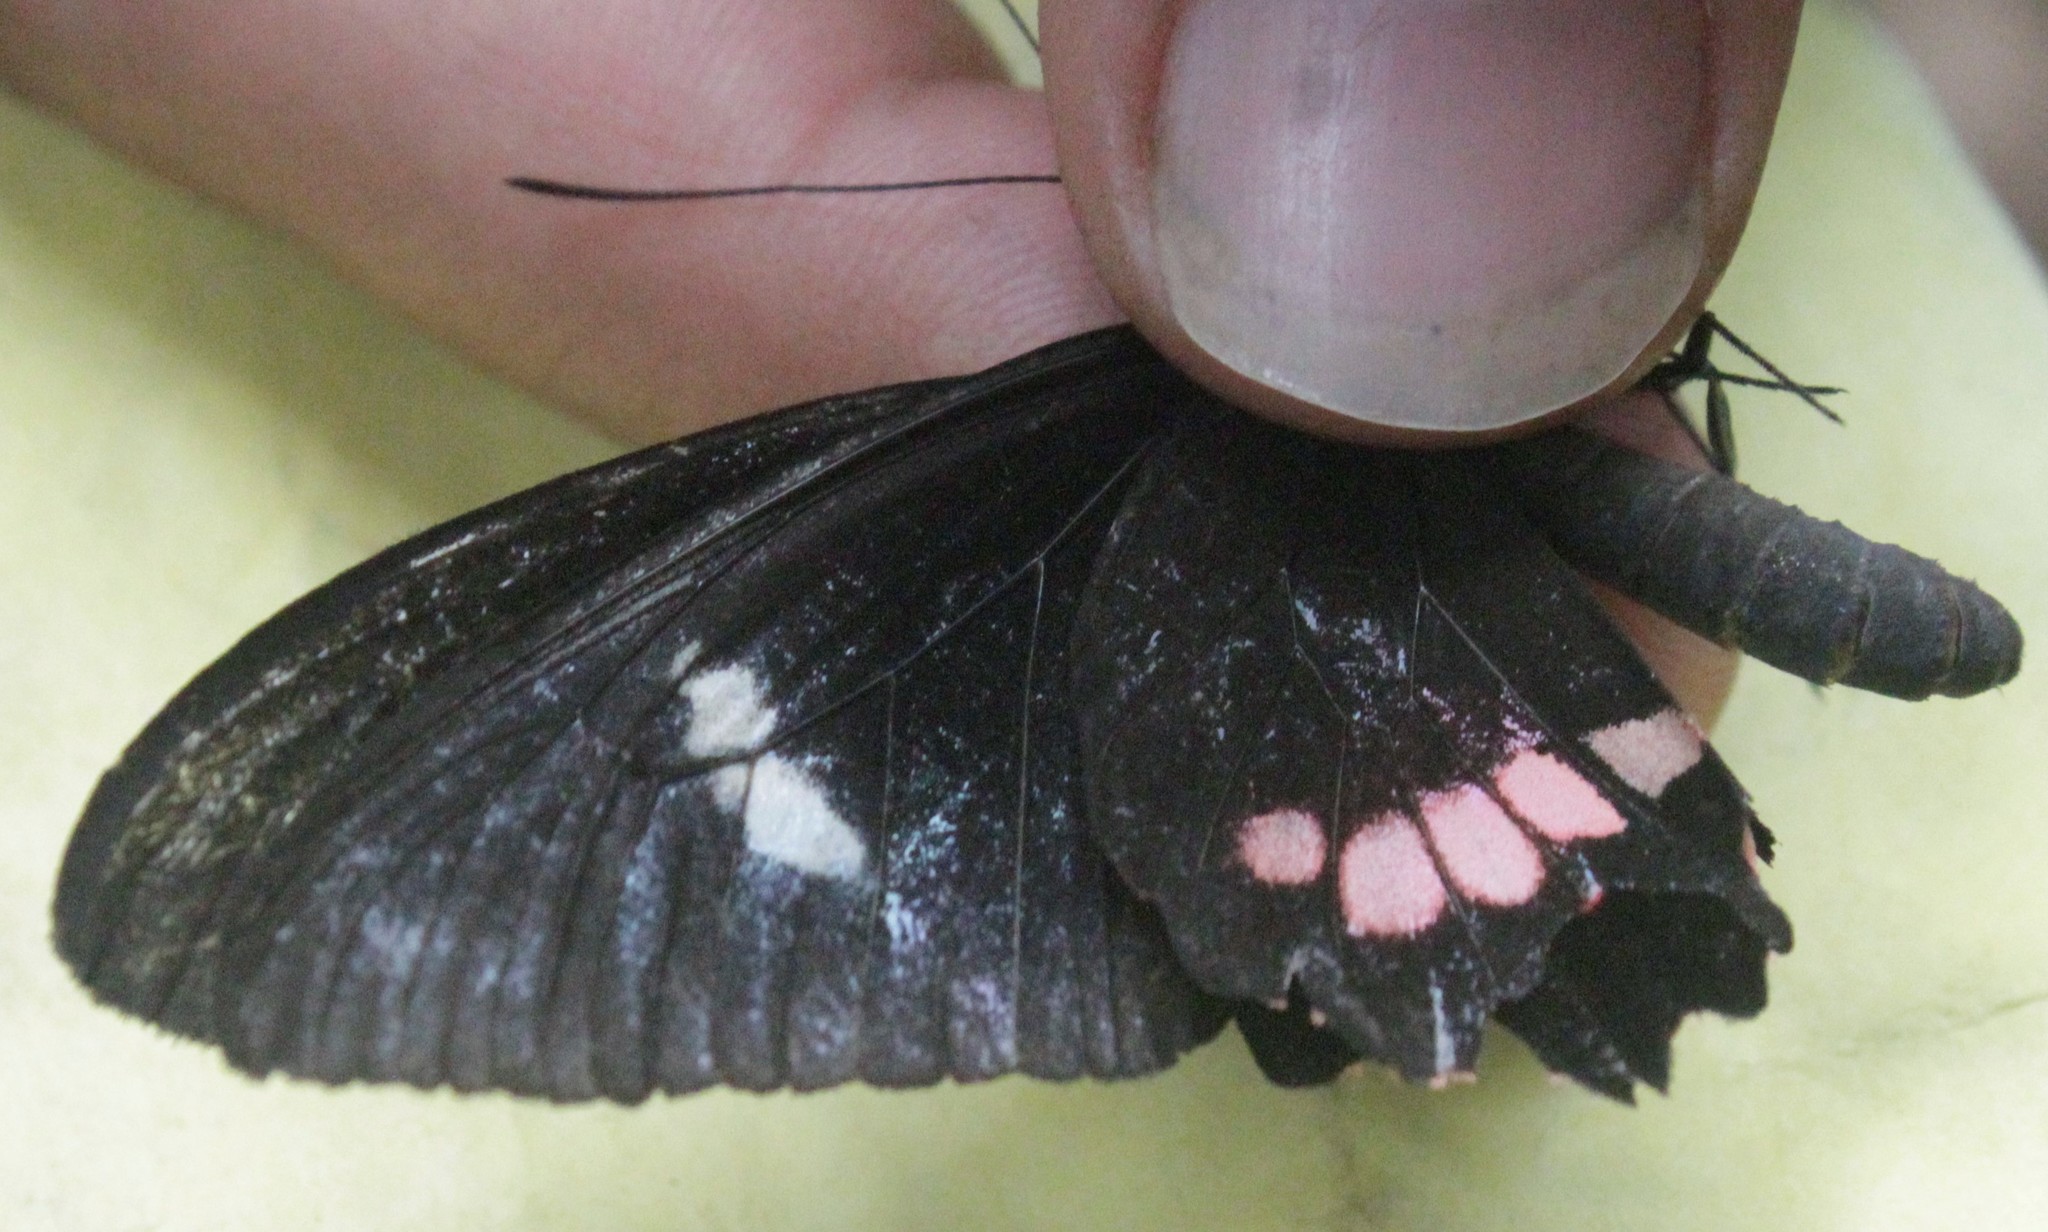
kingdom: Animalia
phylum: Arthropoda
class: Insecta
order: Lepidoptera
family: Papilionidae
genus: Parides
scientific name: Parides eurimedes
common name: True cattleheart
